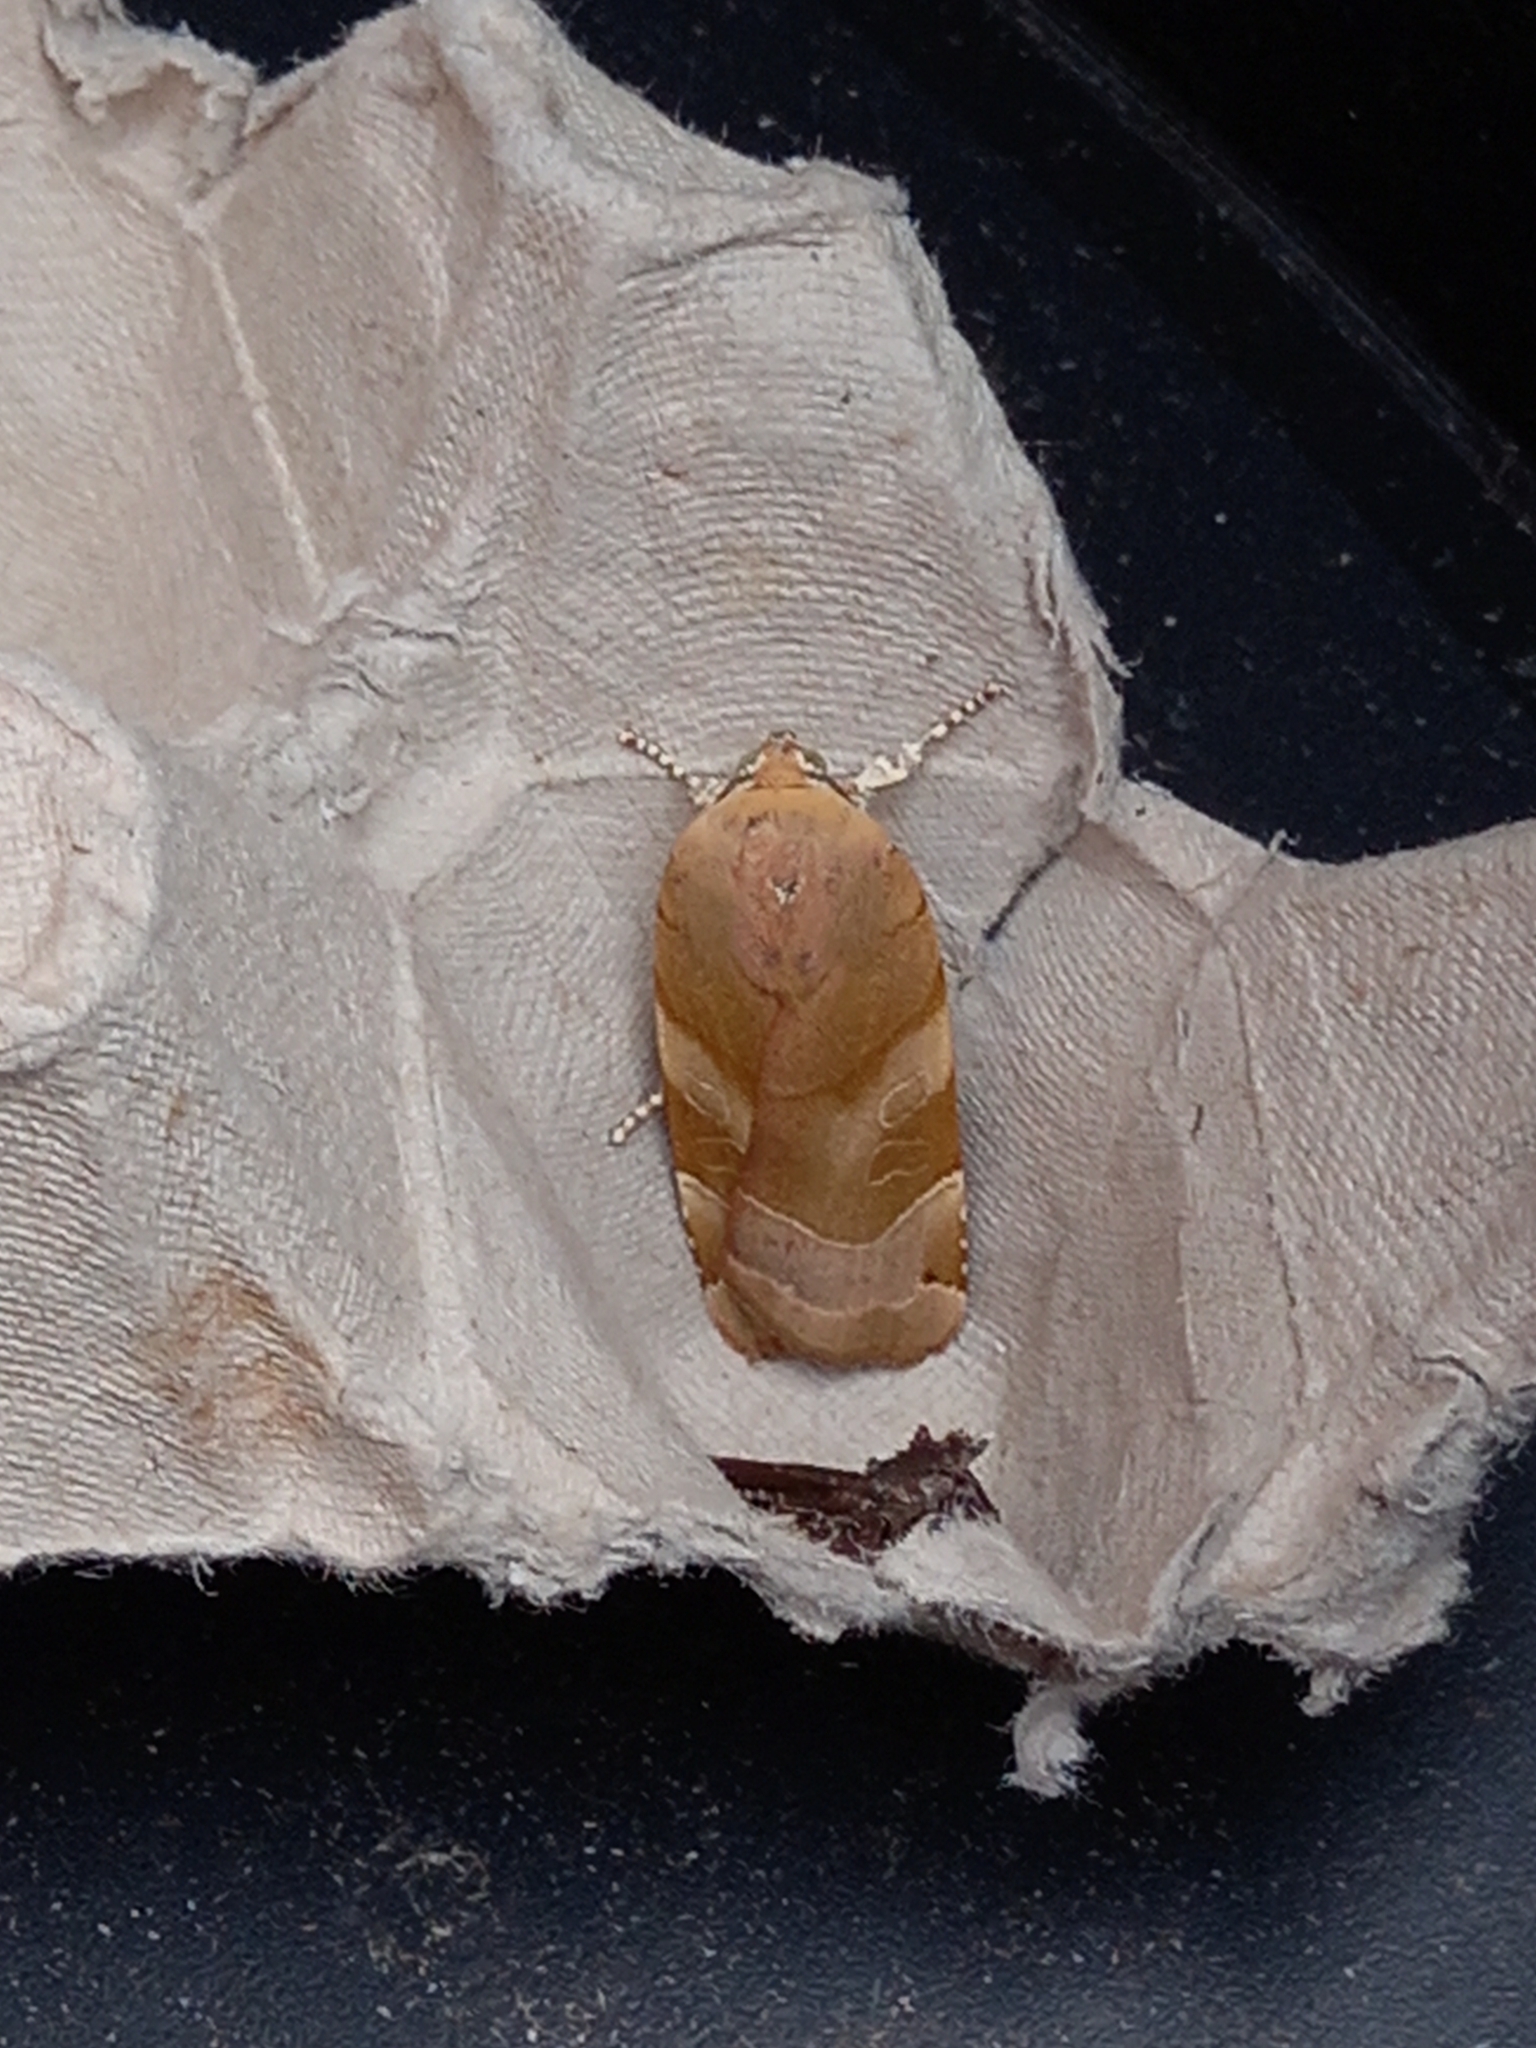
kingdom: Animalia
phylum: Arthropoda
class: Insecta
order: Lepidoptera
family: Noctuidae
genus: Noctua
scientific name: Noctua fimbriata
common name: Broad-bordered yellow underwing
